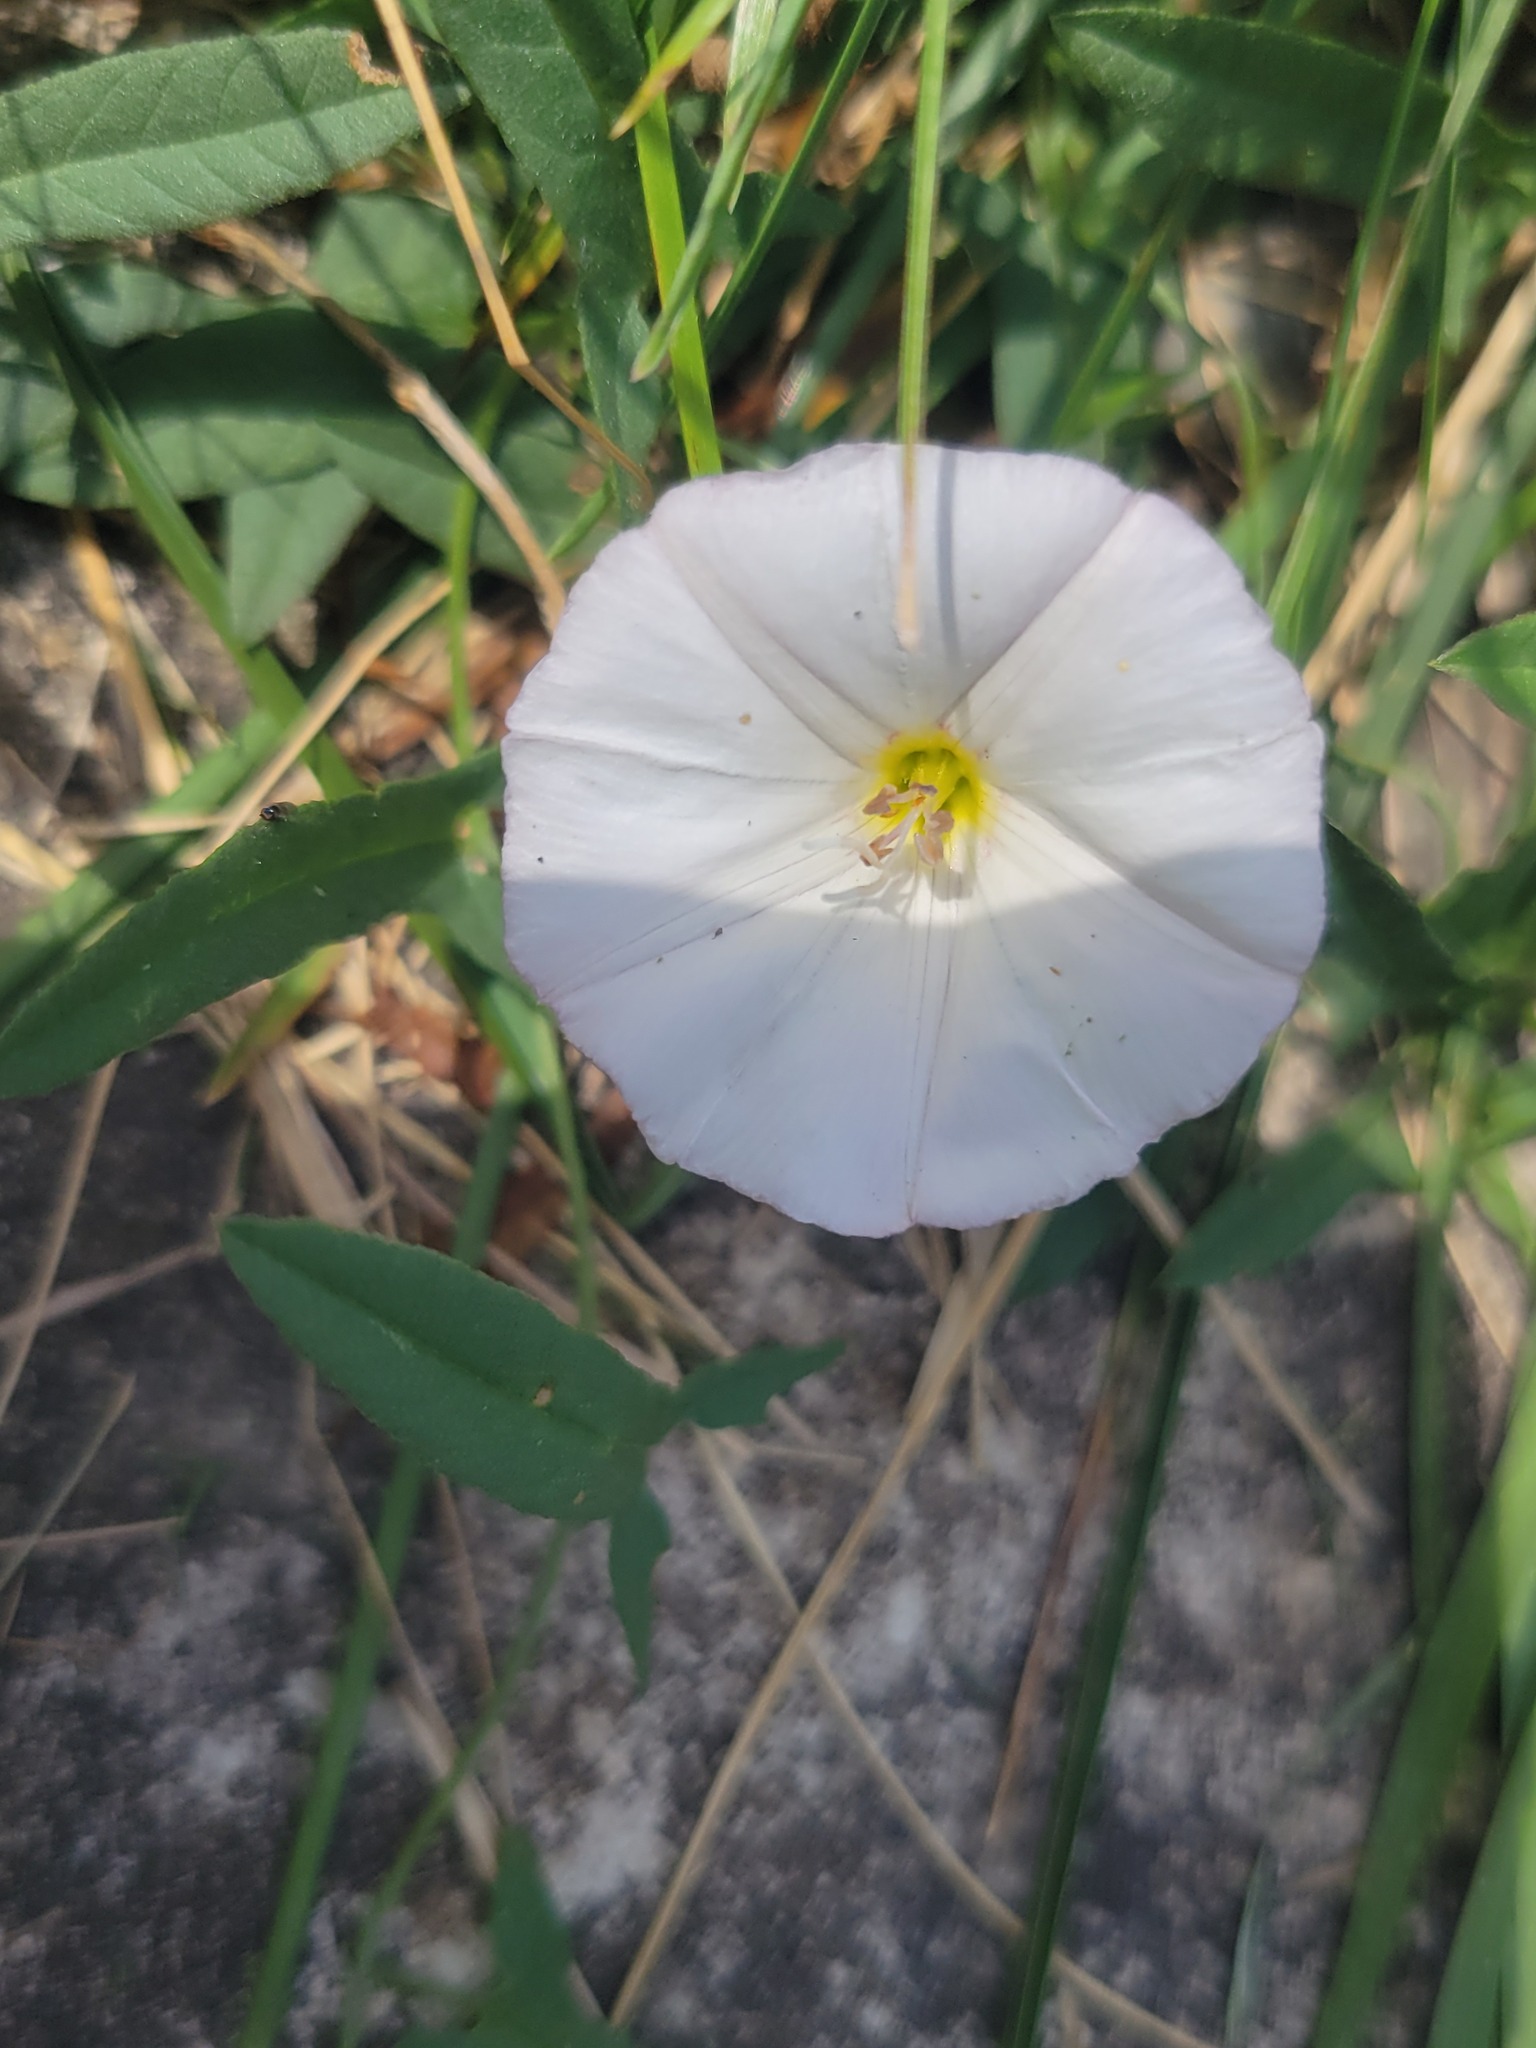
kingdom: Plantae
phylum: Tracheophyta
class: Magnoliopsida
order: Solanales
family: Convolvulaceae
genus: Convolvulus
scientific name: Convolvulus arvensis
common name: Field bindweed
